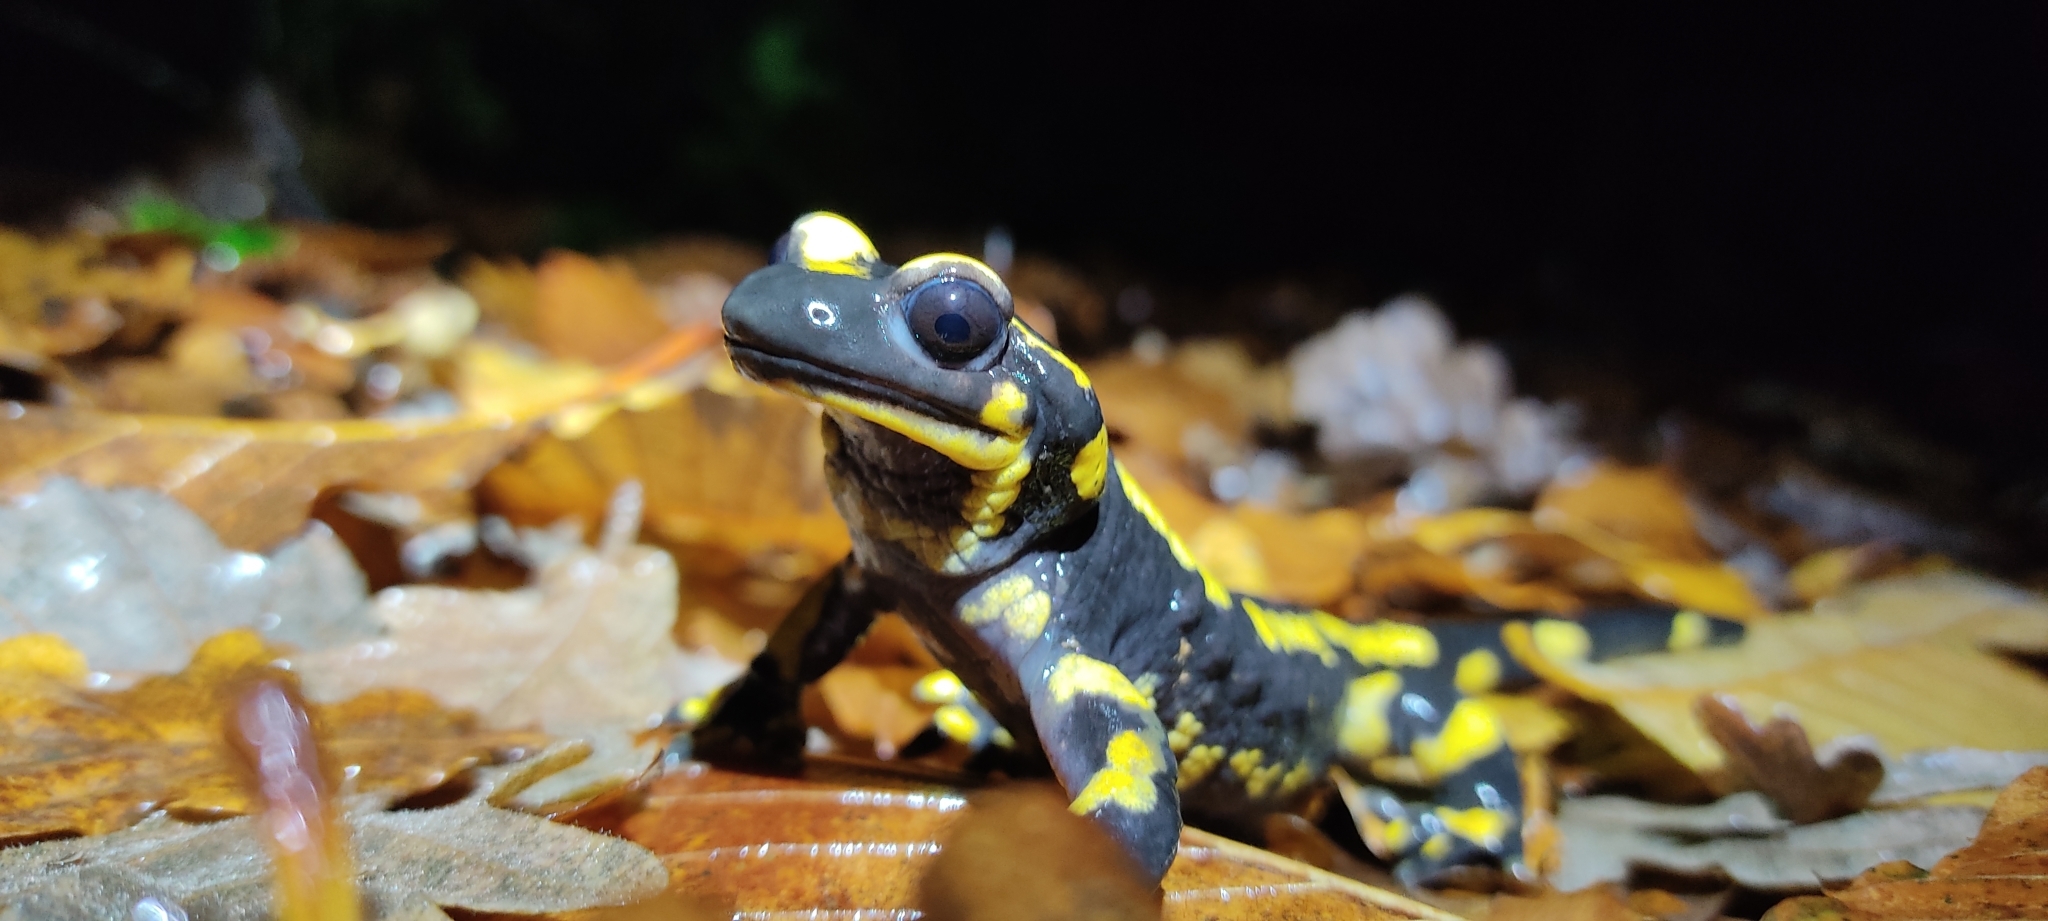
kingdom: Animalia
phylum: Chordata
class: Amphibia
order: Caudata
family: Salamandridae
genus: Salamandra
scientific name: Salamandra salamandra
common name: Fire salamander
